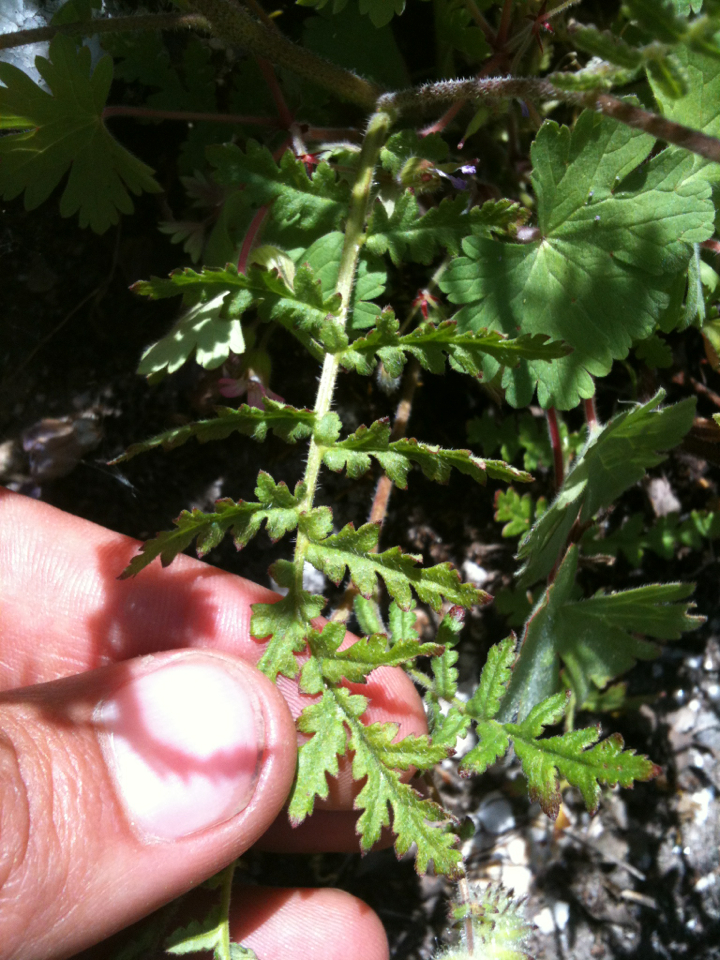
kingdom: Plantae
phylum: Tracheophyta
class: Magnoliopsida
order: Boraginales
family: Hydrophyllaceae
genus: Phacelia
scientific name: Phacelia distans
